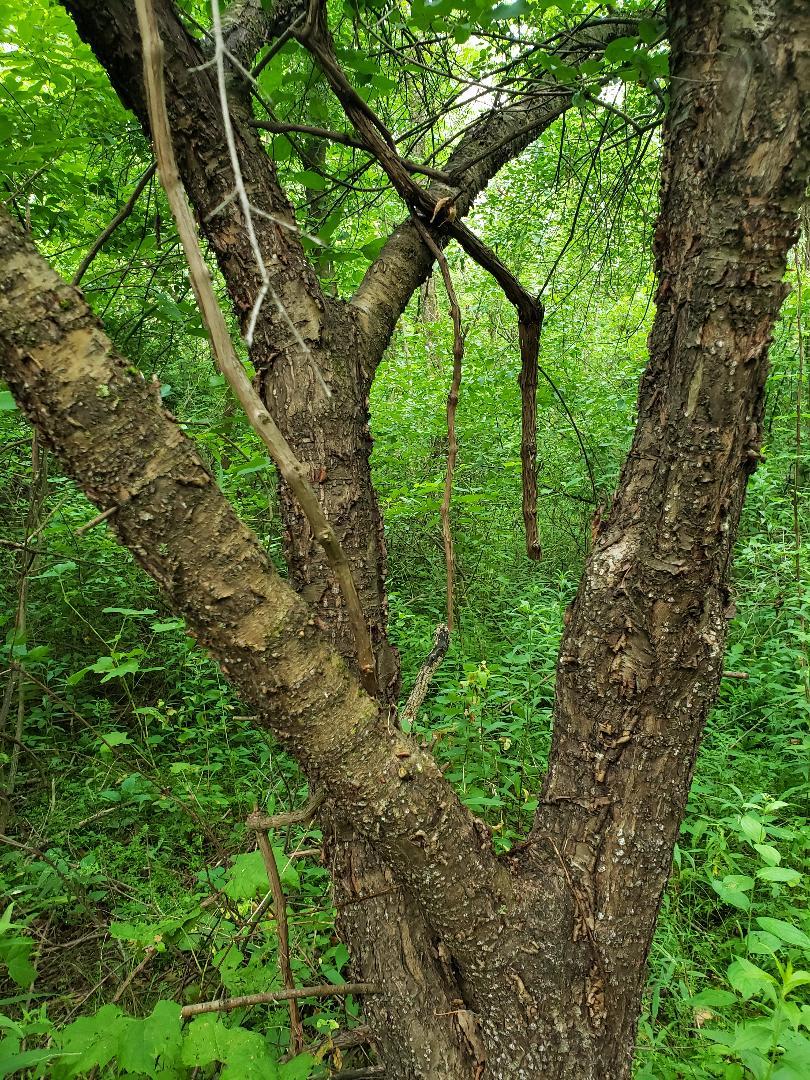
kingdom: Plantae
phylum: Tracheophyta
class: Magnoliopsida
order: Rosales
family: Rhamnaceae
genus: Rhamnus
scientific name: Rhamnus cathartica
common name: Common buckthorn
